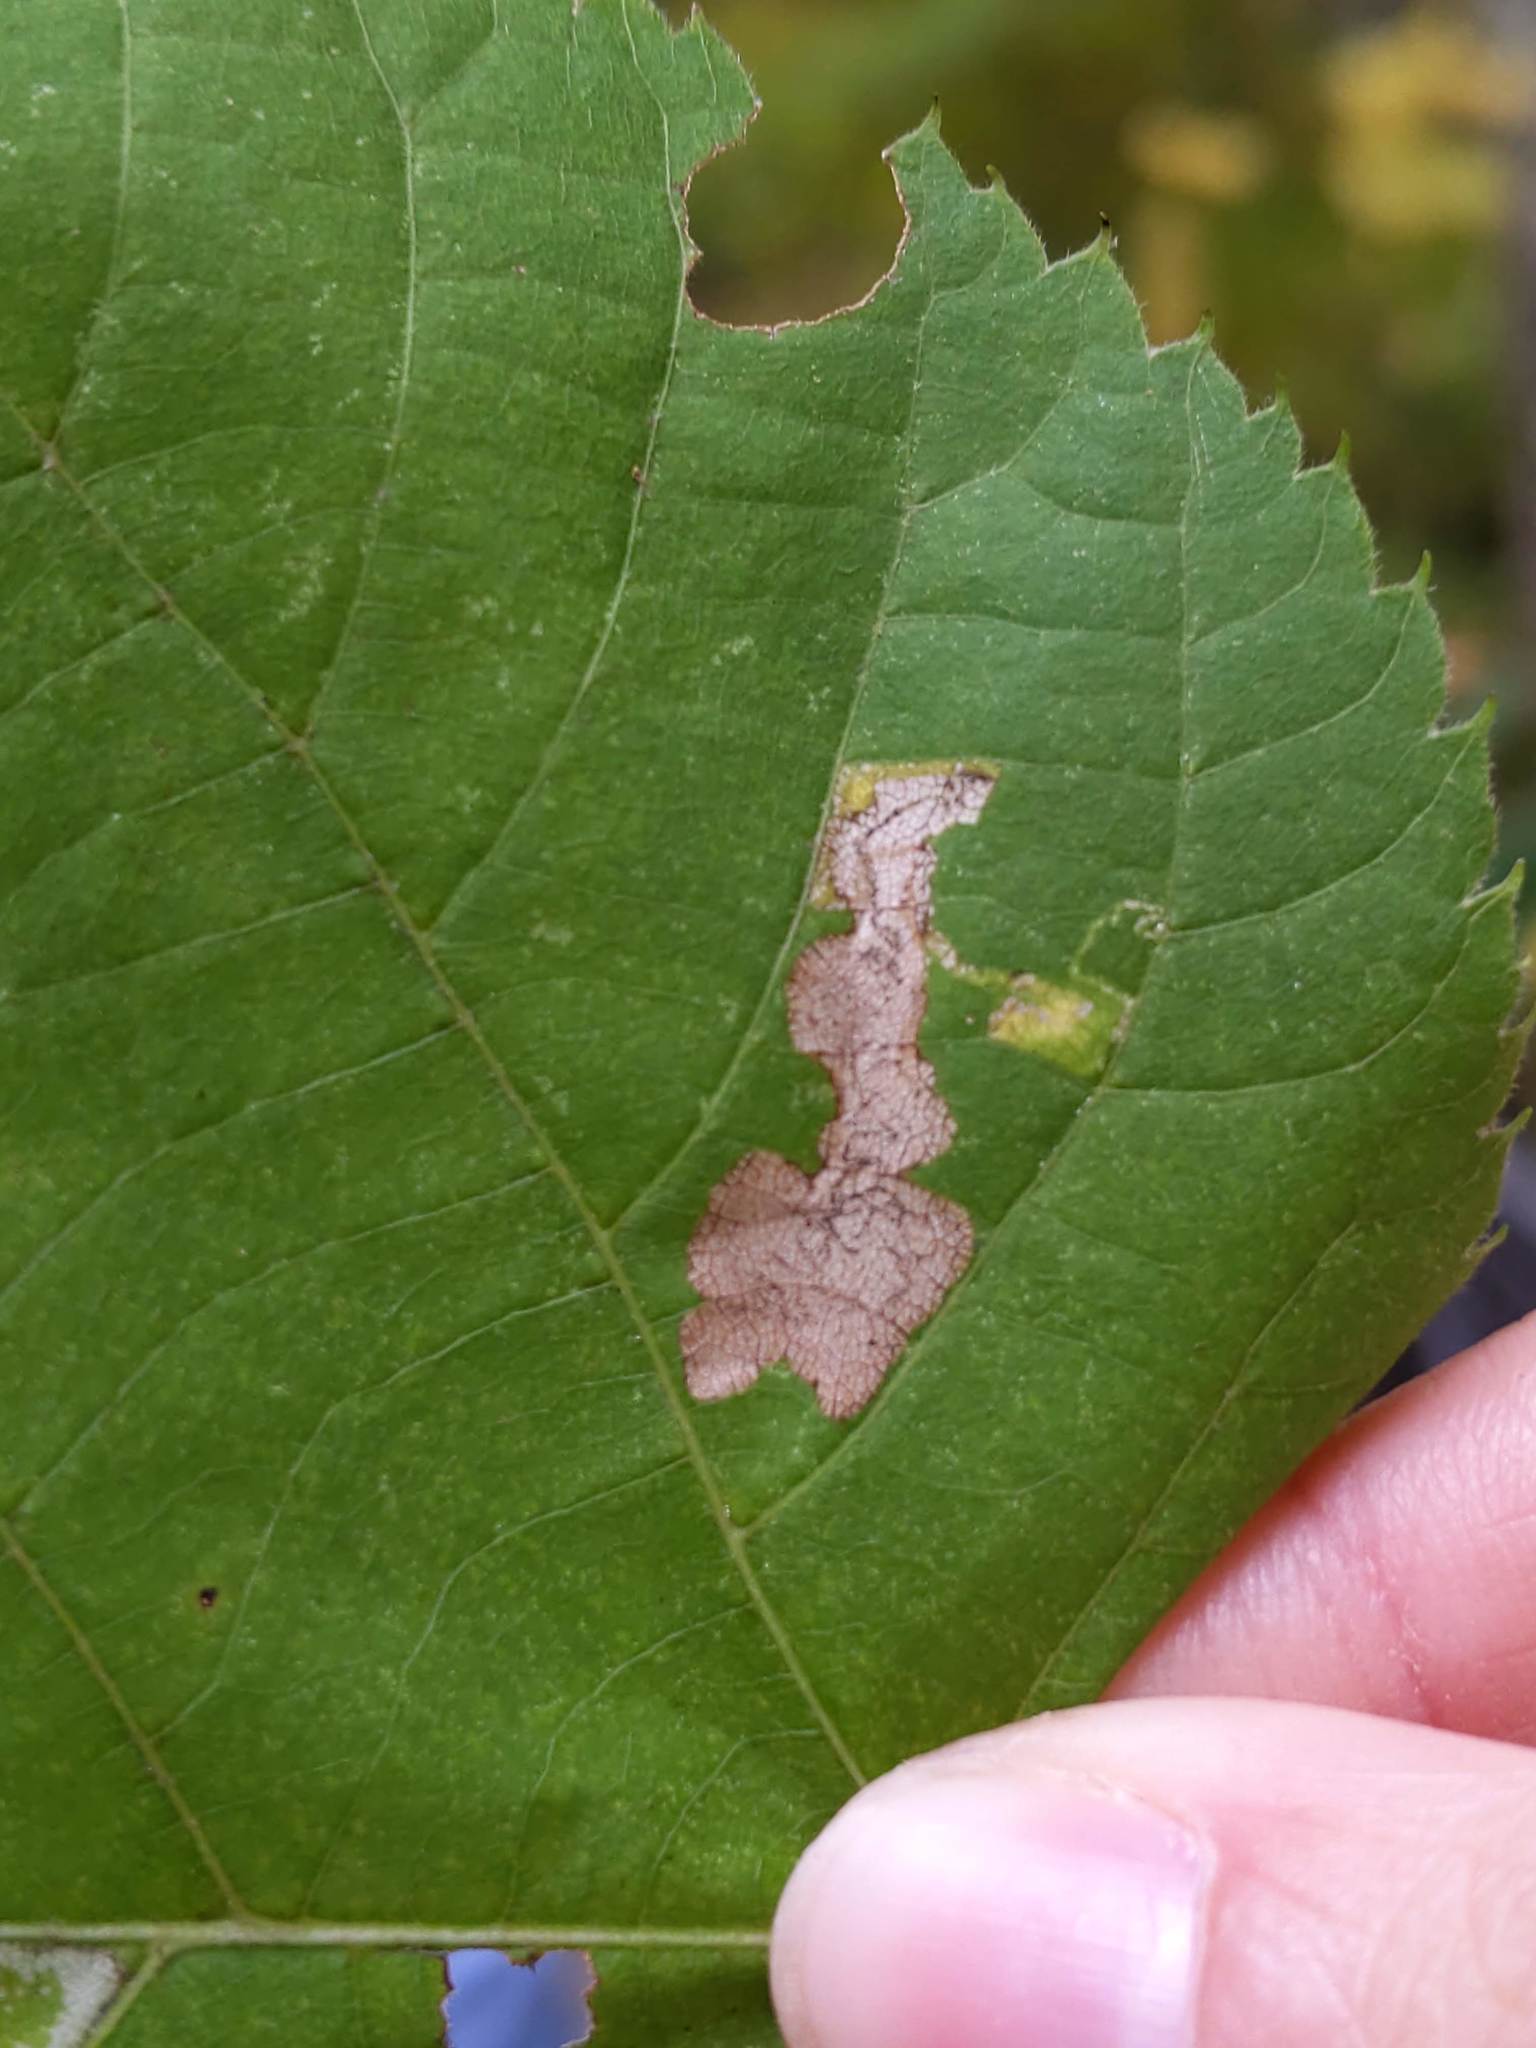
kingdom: Animalia
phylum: Arthropoda
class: Insecta
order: Lepidoptera
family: Nepticulidae
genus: Stigmella
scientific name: Stigmella argentifasciella
